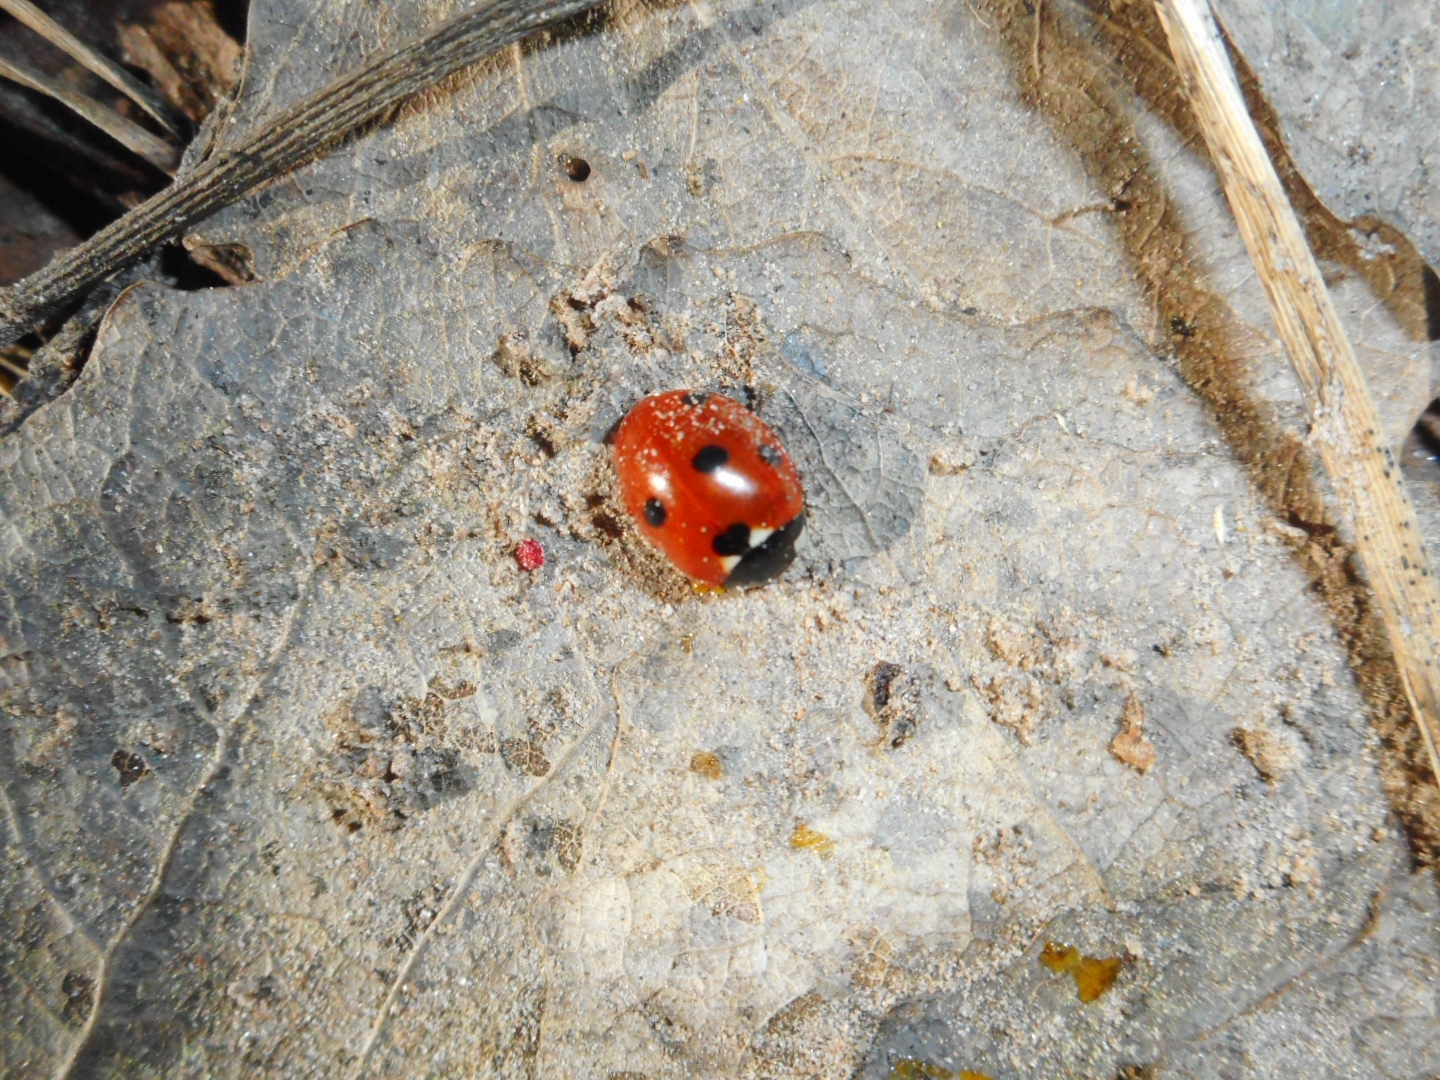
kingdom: Animalia
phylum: Arthropoda
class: Insecta
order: Coleoptera
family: Coccinellidae
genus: Coccinella
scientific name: Coccinella septempunctata
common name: Sevenspotted lady beetle
